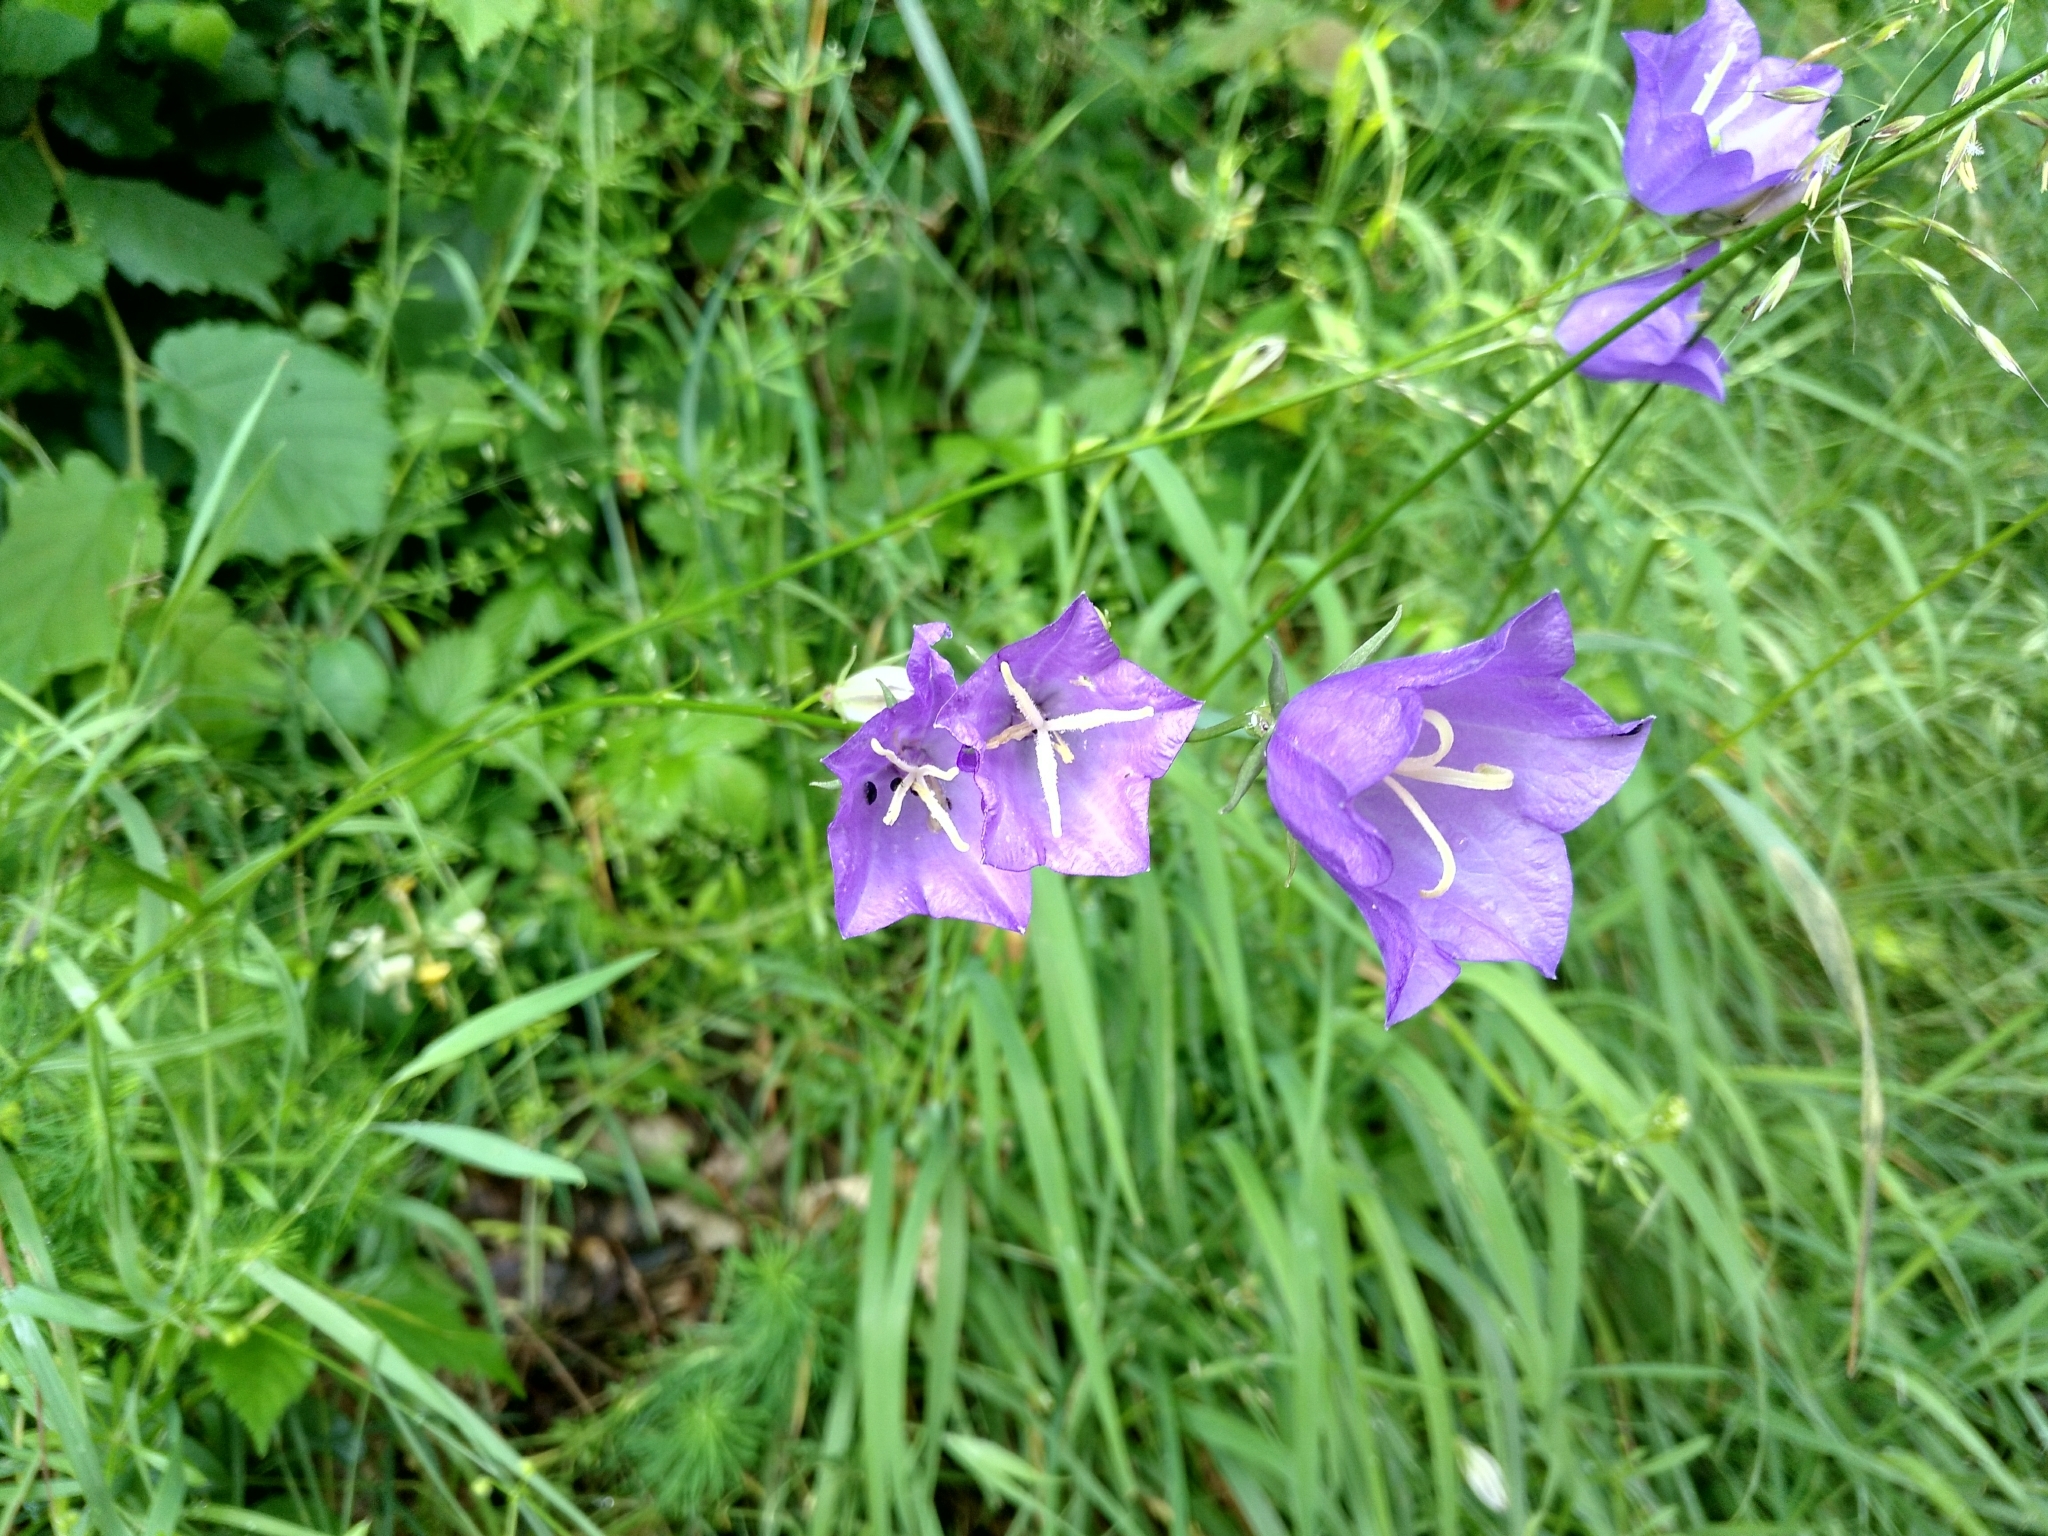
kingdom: Plantae
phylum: Tracheophyta
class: Magnoliopsida
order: Asterales
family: Campanulaceae
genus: Campanula
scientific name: Campanula persicifolia
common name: Peach-leaved bellflower
